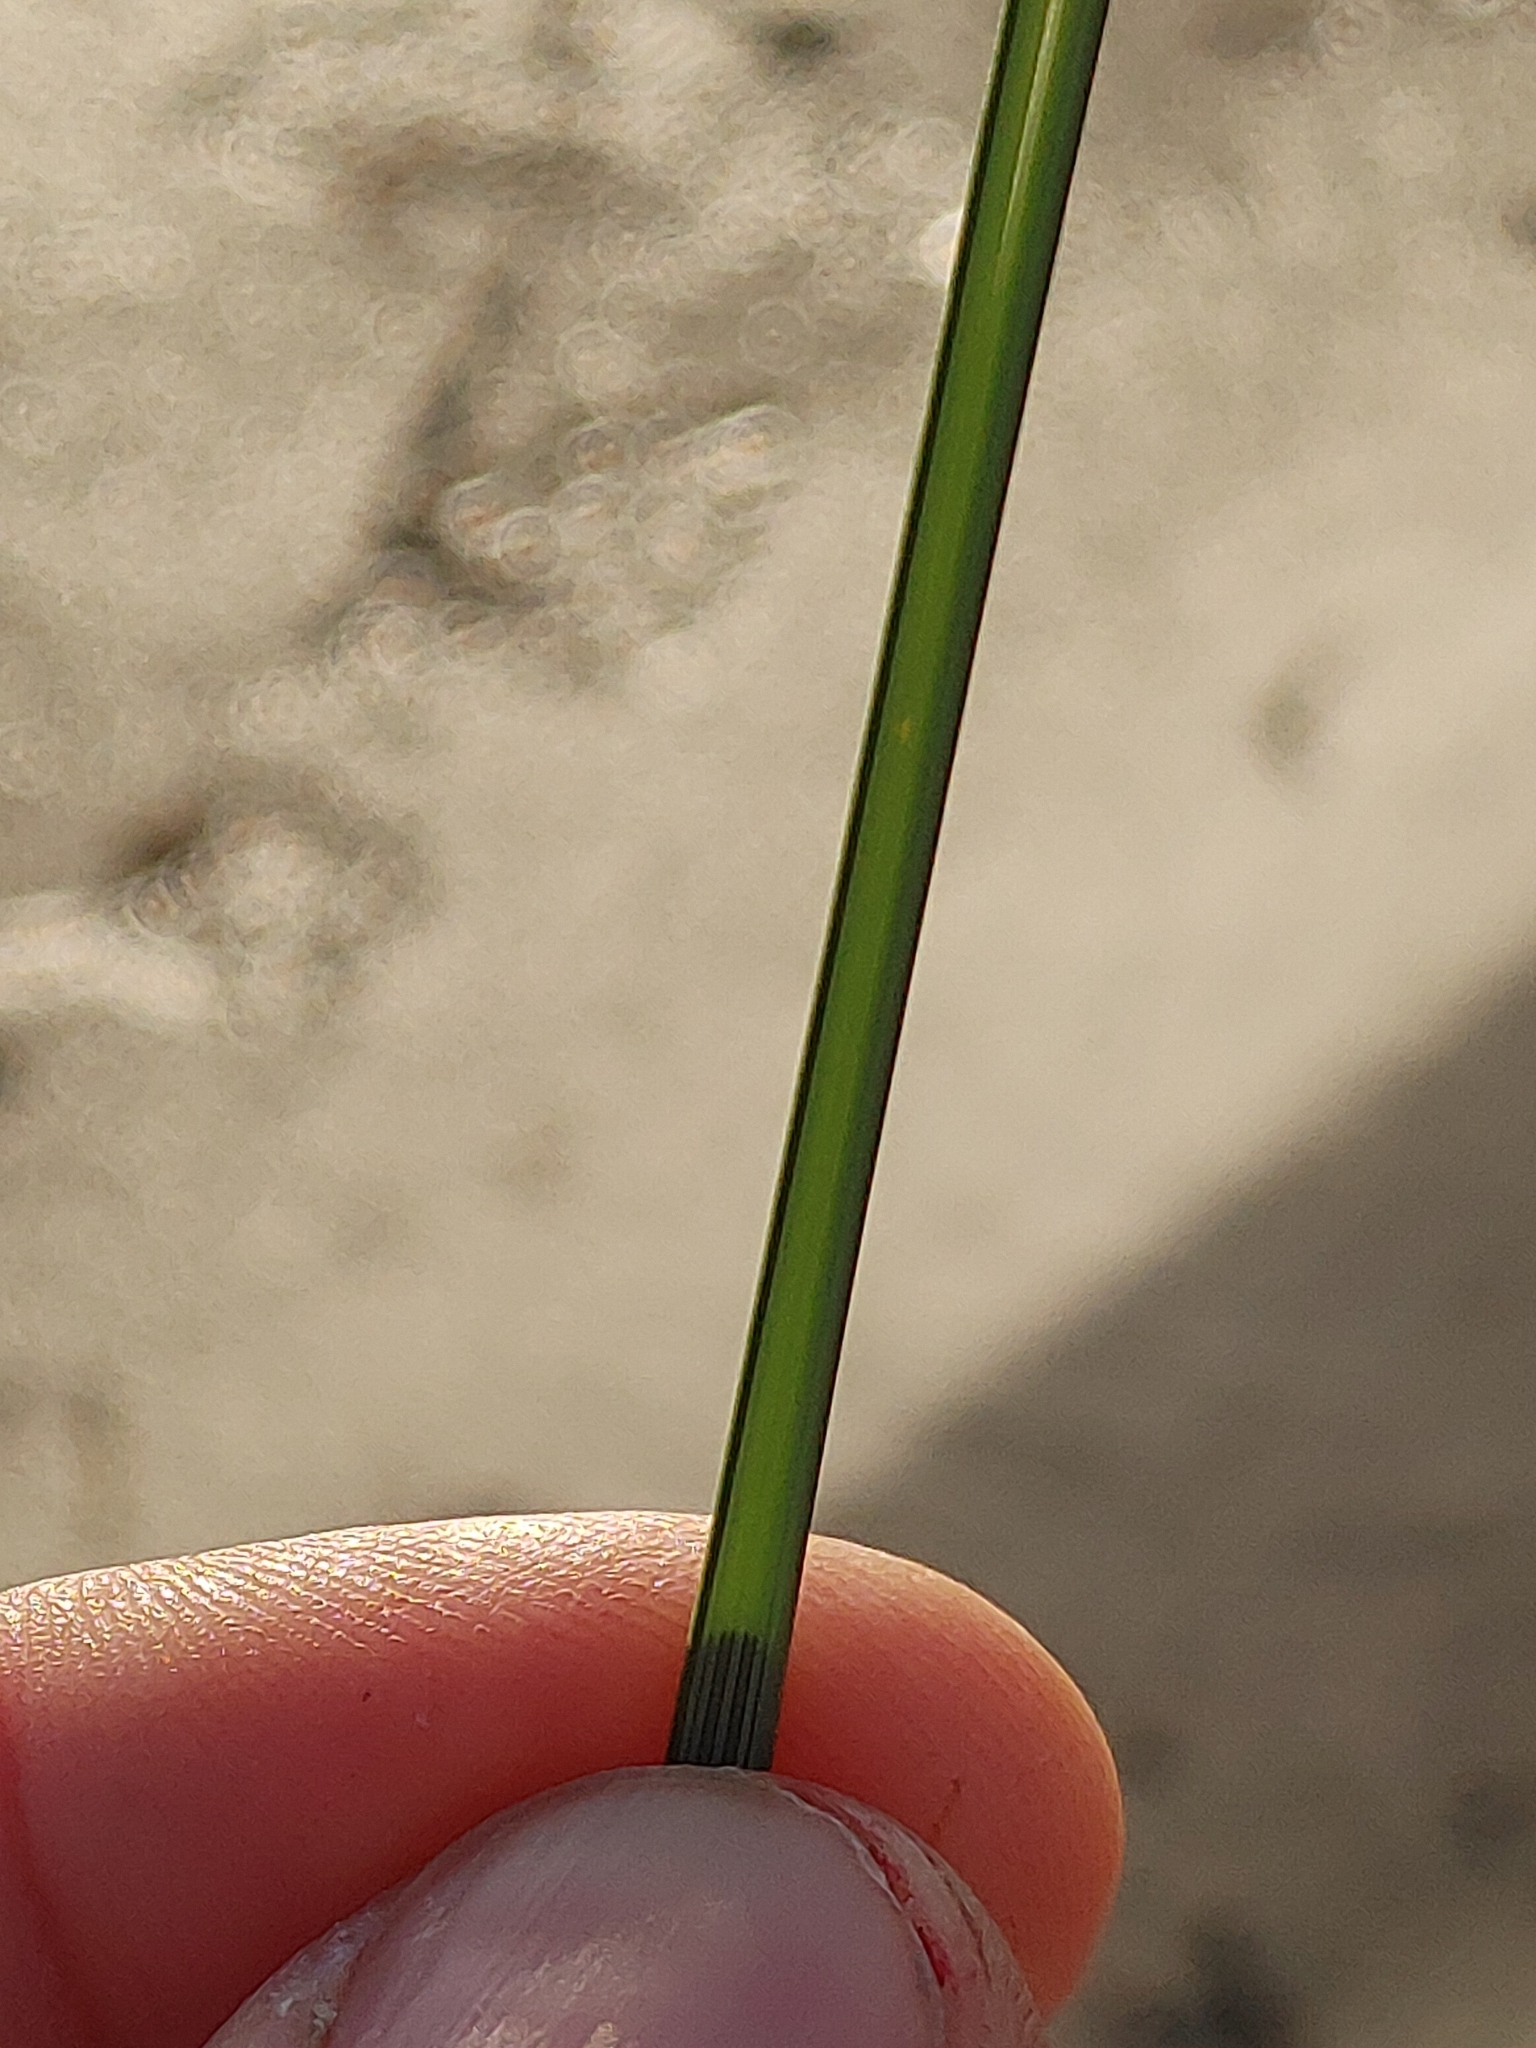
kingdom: Plantae
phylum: Tracheophyta
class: Liliopsida
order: Poales
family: Poaceae
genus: Sporobolus
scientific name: Sporobolus pumilus
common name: Highwater grass
